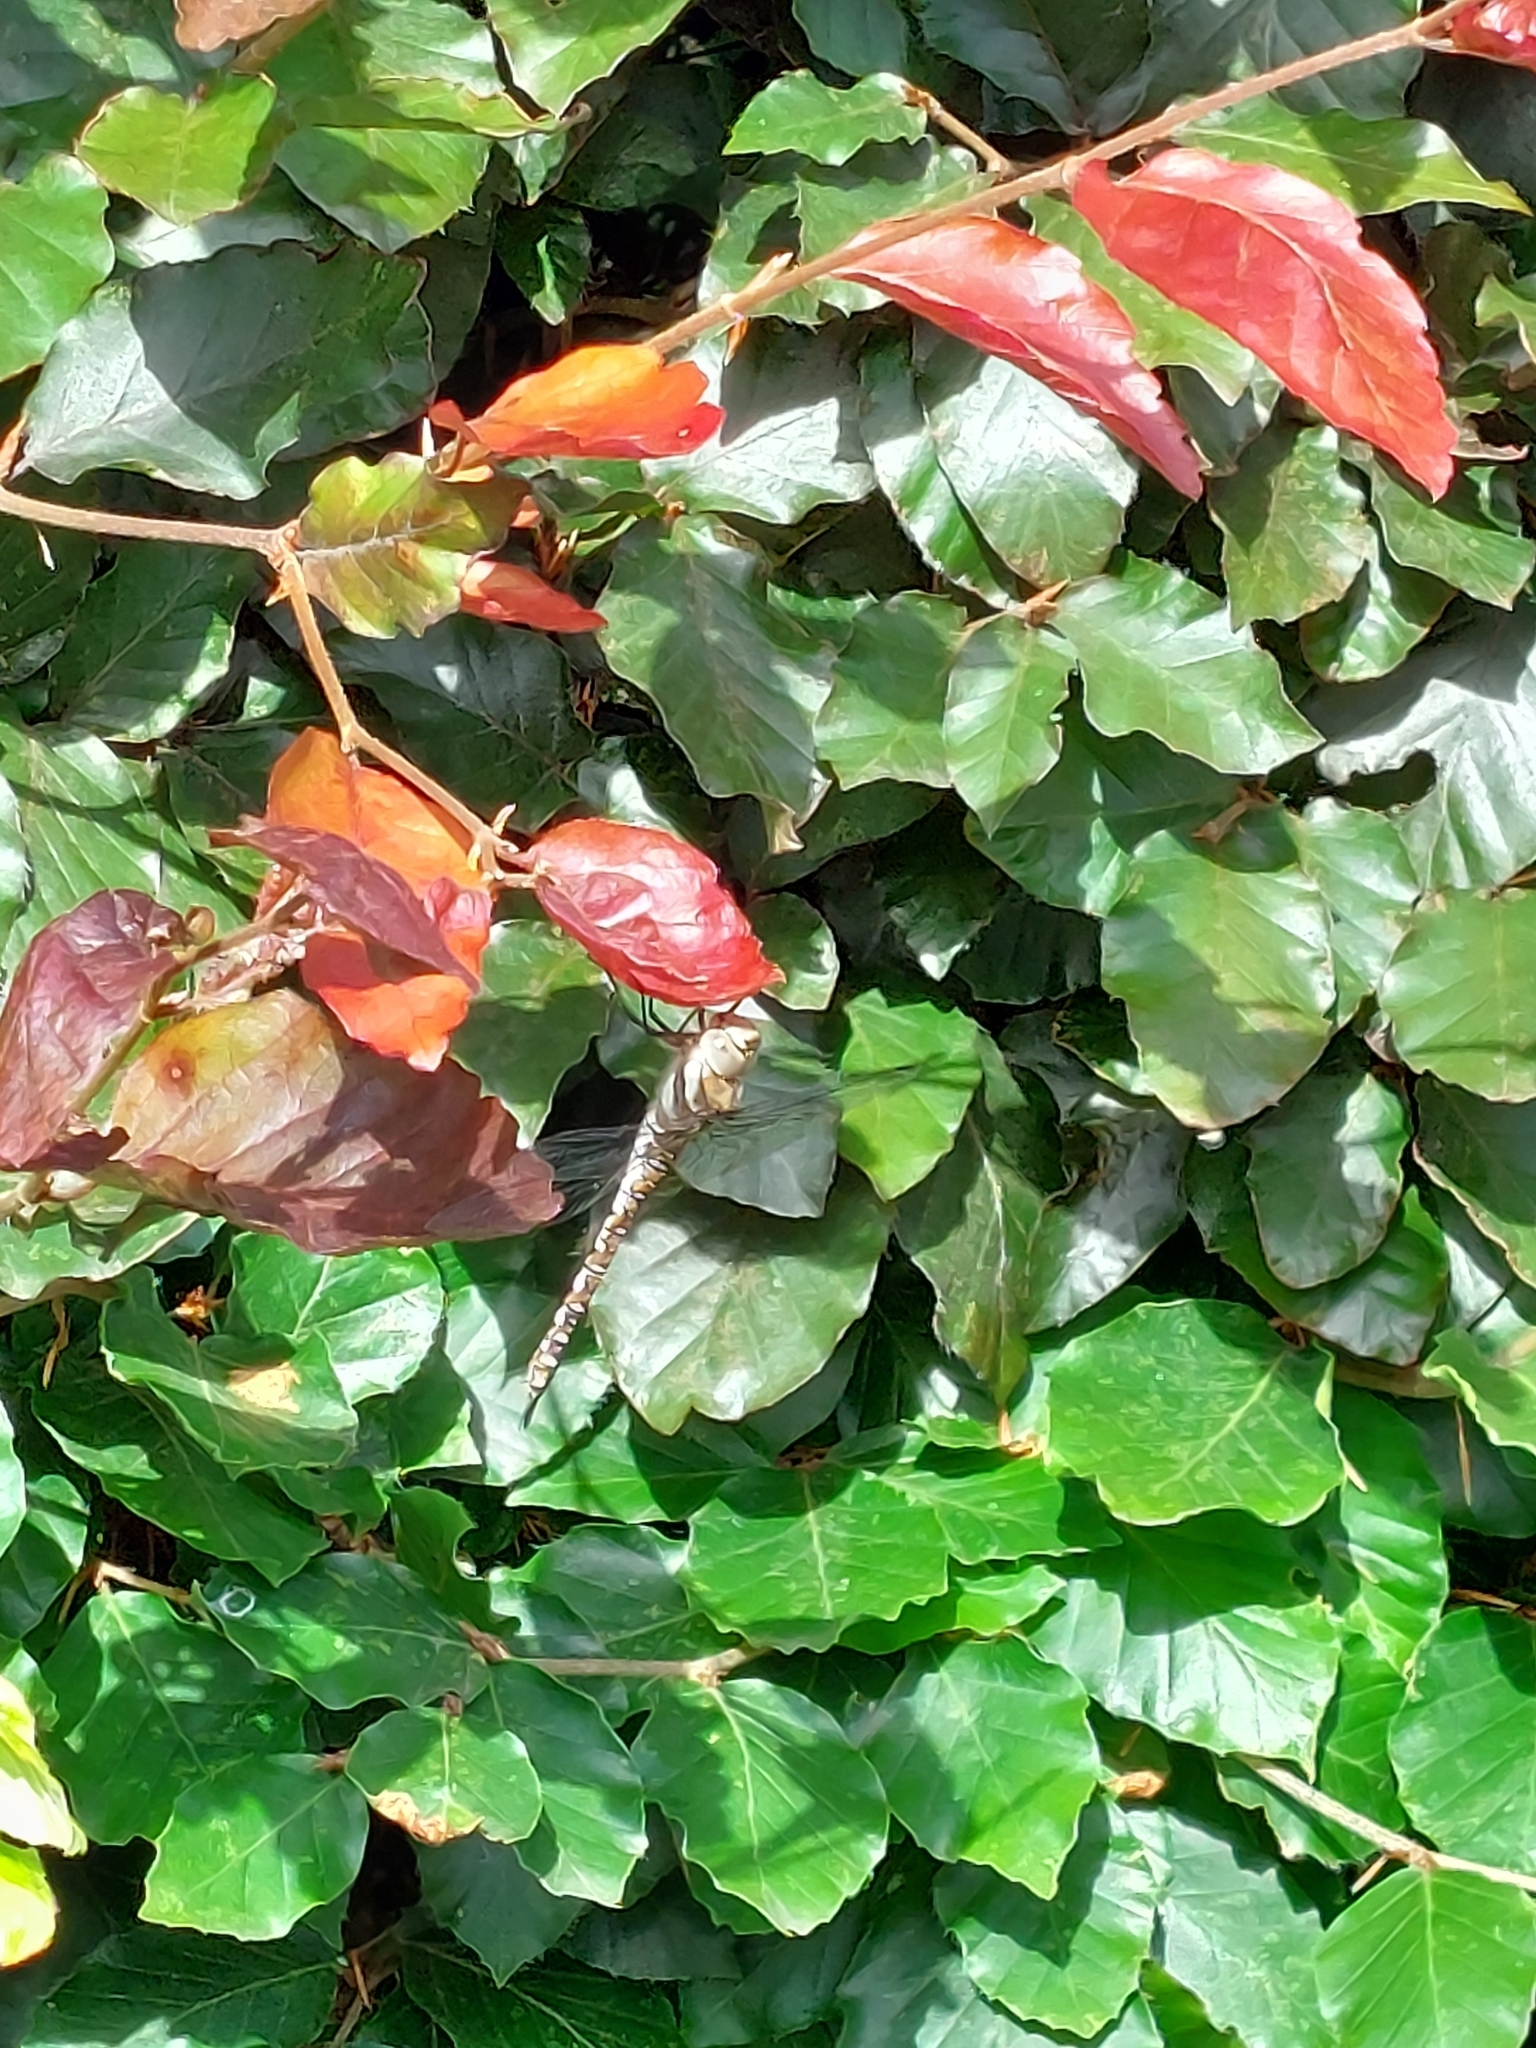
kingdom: Animalia
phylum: Arthropoda
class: Insecta
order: Odonata
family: Aeshnidae
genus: Aeshna
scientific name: Aeshna mixta
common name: Migrant hawker
